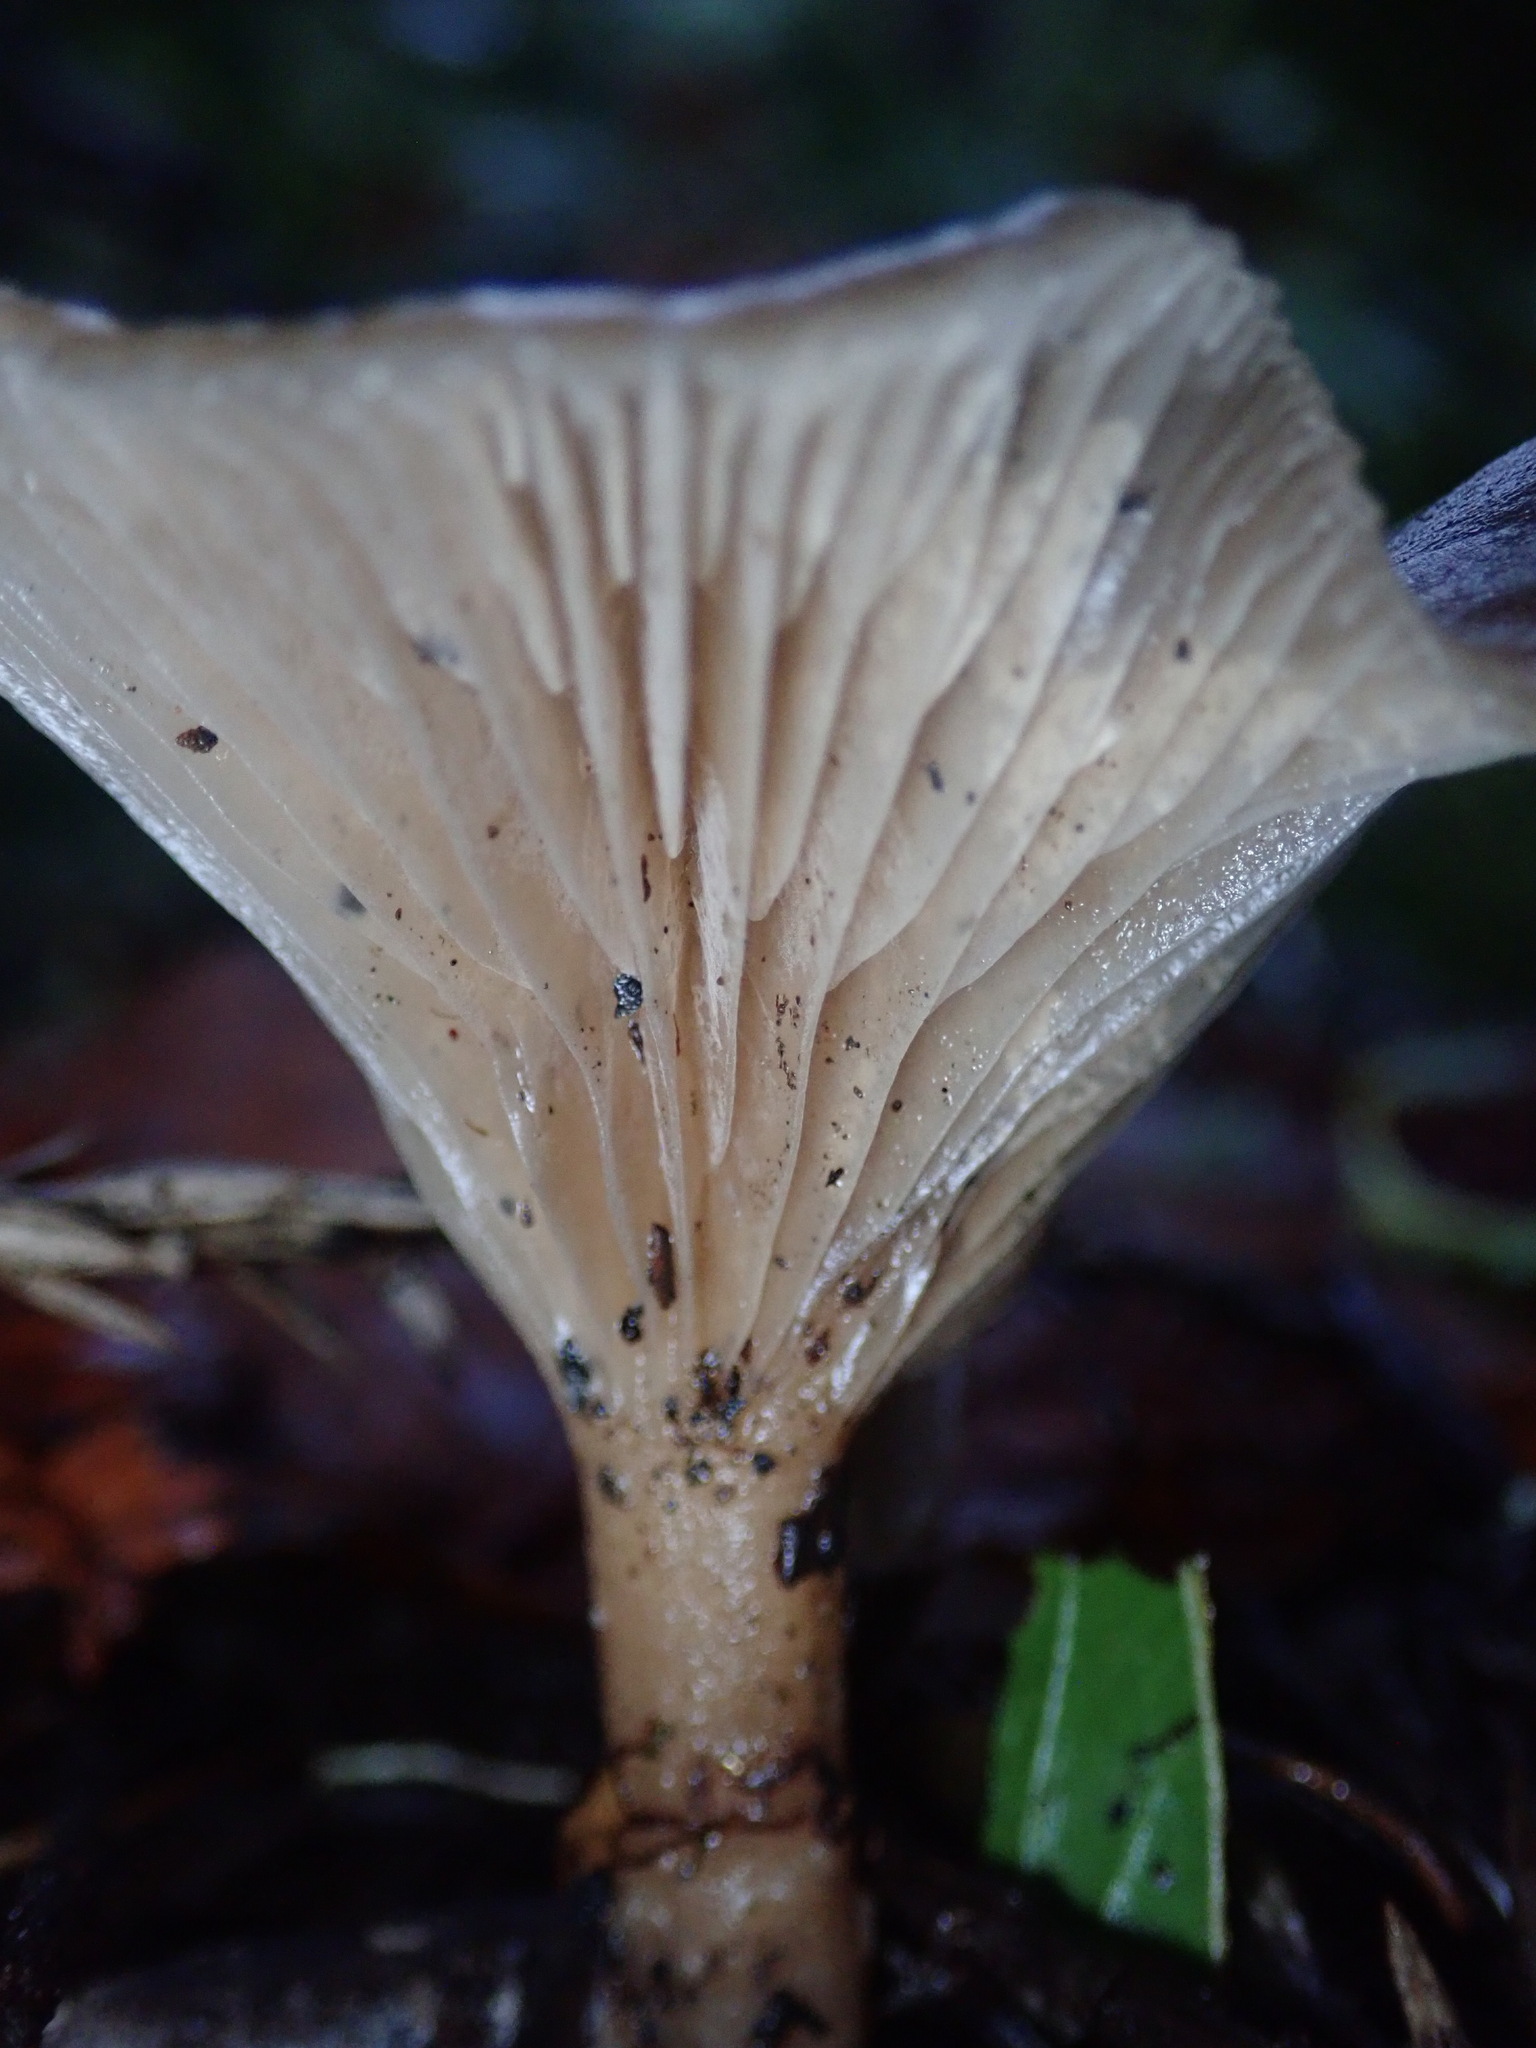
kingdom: Fungi
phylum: Basidiomycota
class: Agaricomycetes
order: Agaricales
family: Tricholomataceae
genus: Clitocybe
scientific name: Clitocybe fragrans
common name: Fragrant funnel
